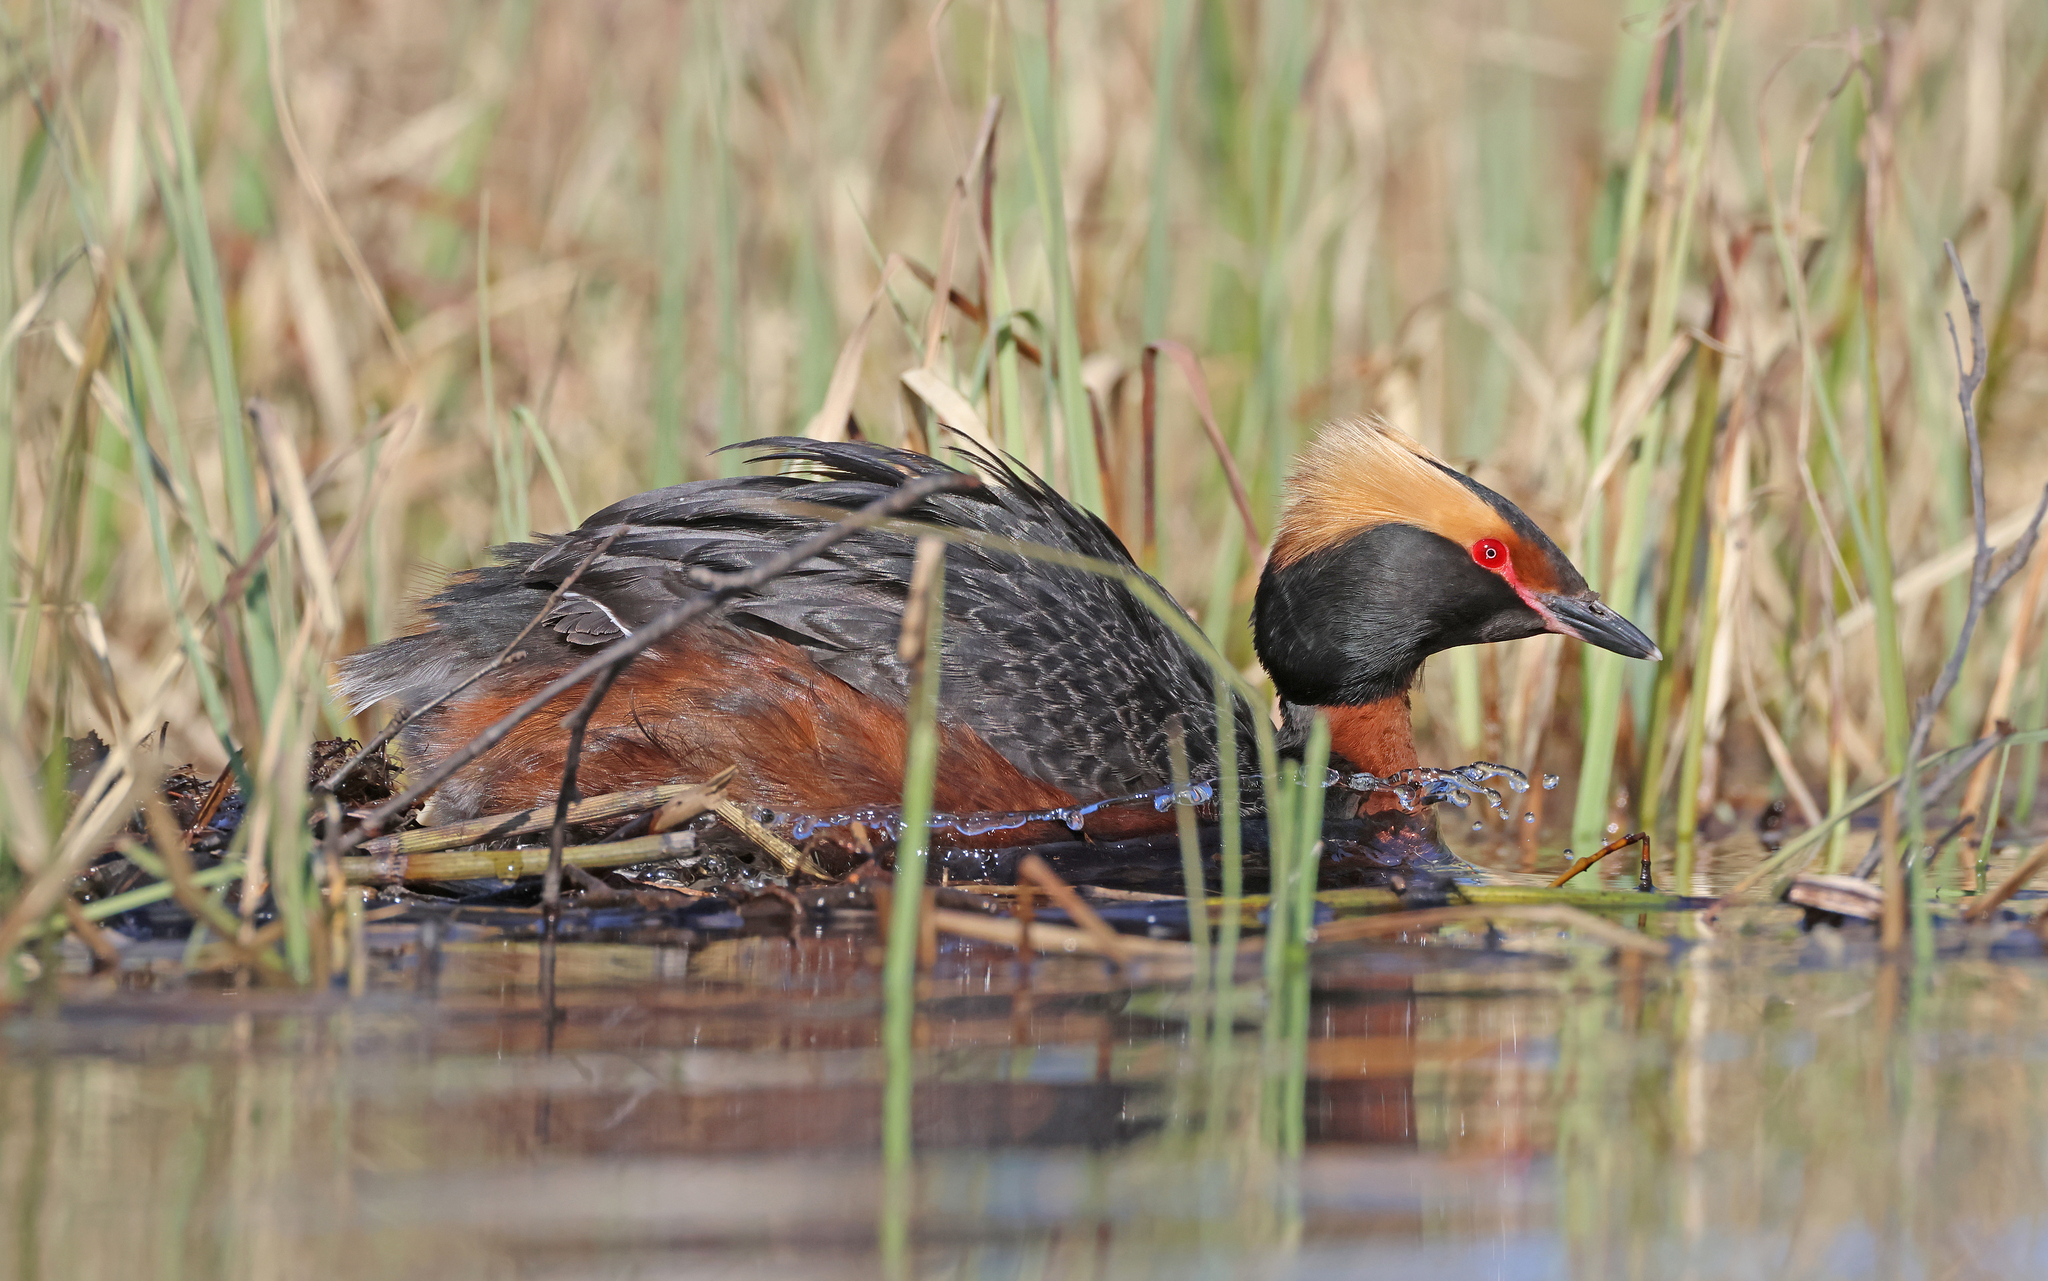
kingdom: Animalia
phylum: Chordata
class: Aves
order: Podicipediformes
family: Podicipedidae
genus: Podiceps
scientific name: Podiceps auritus
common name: Horned grebe
